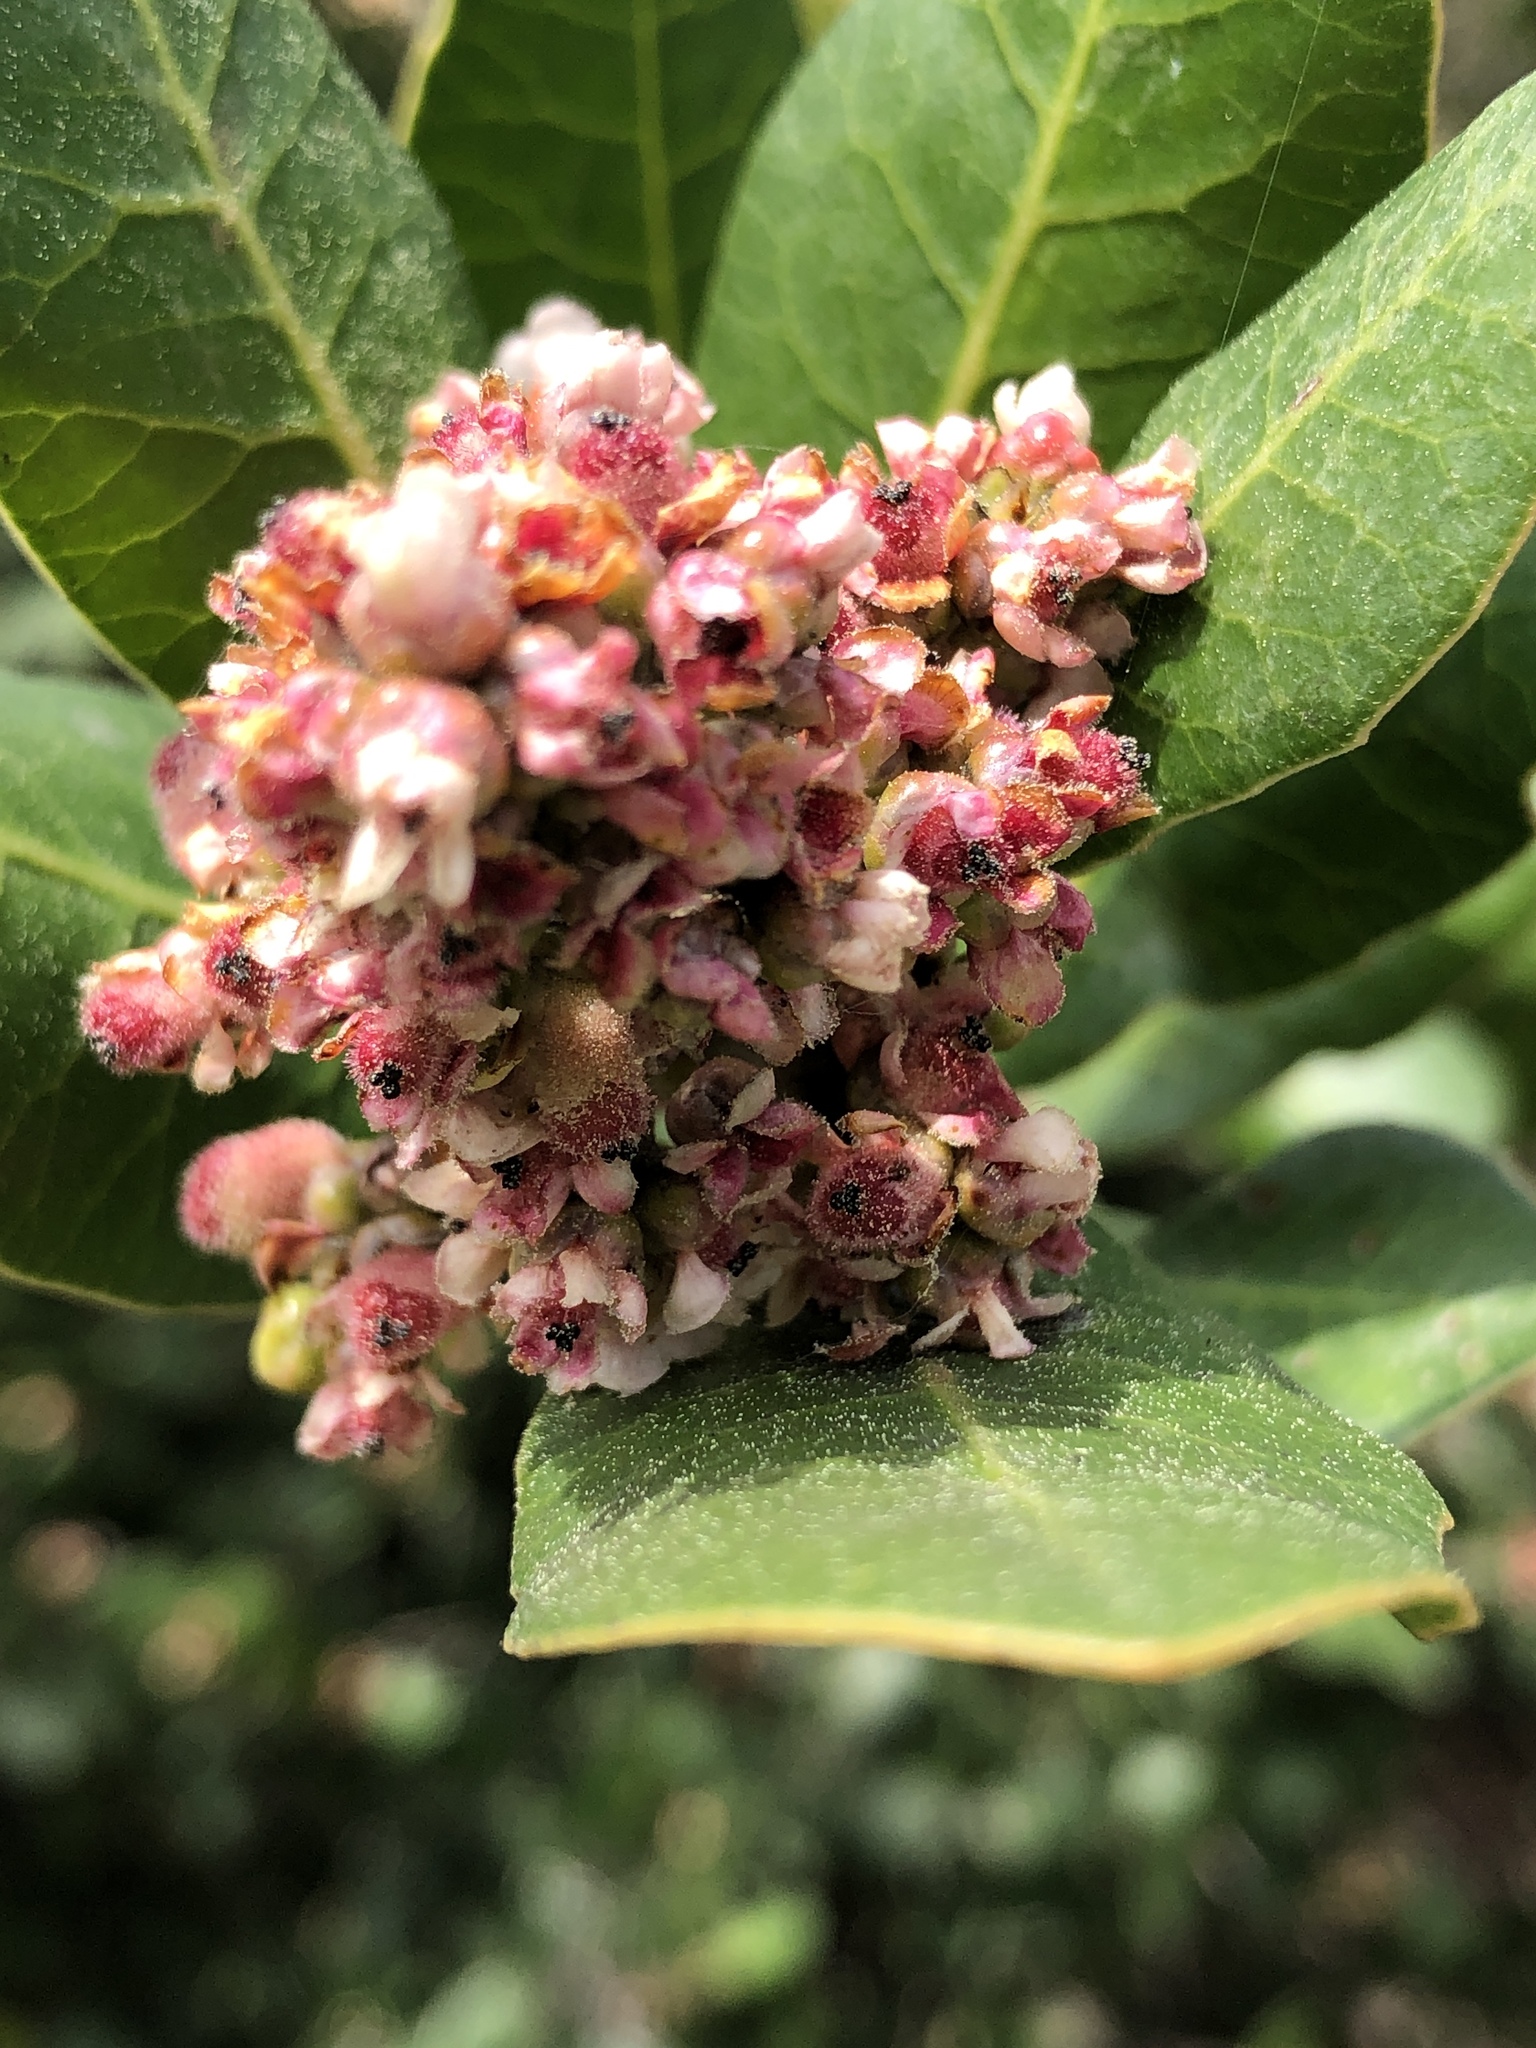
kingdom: Plantae
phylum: Tracheophyta
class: Magnoliopsida
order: Sapindales
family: Anacardiaceae
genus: Rhus
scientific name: Rhus integrifolia
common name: Lemonade sumac
